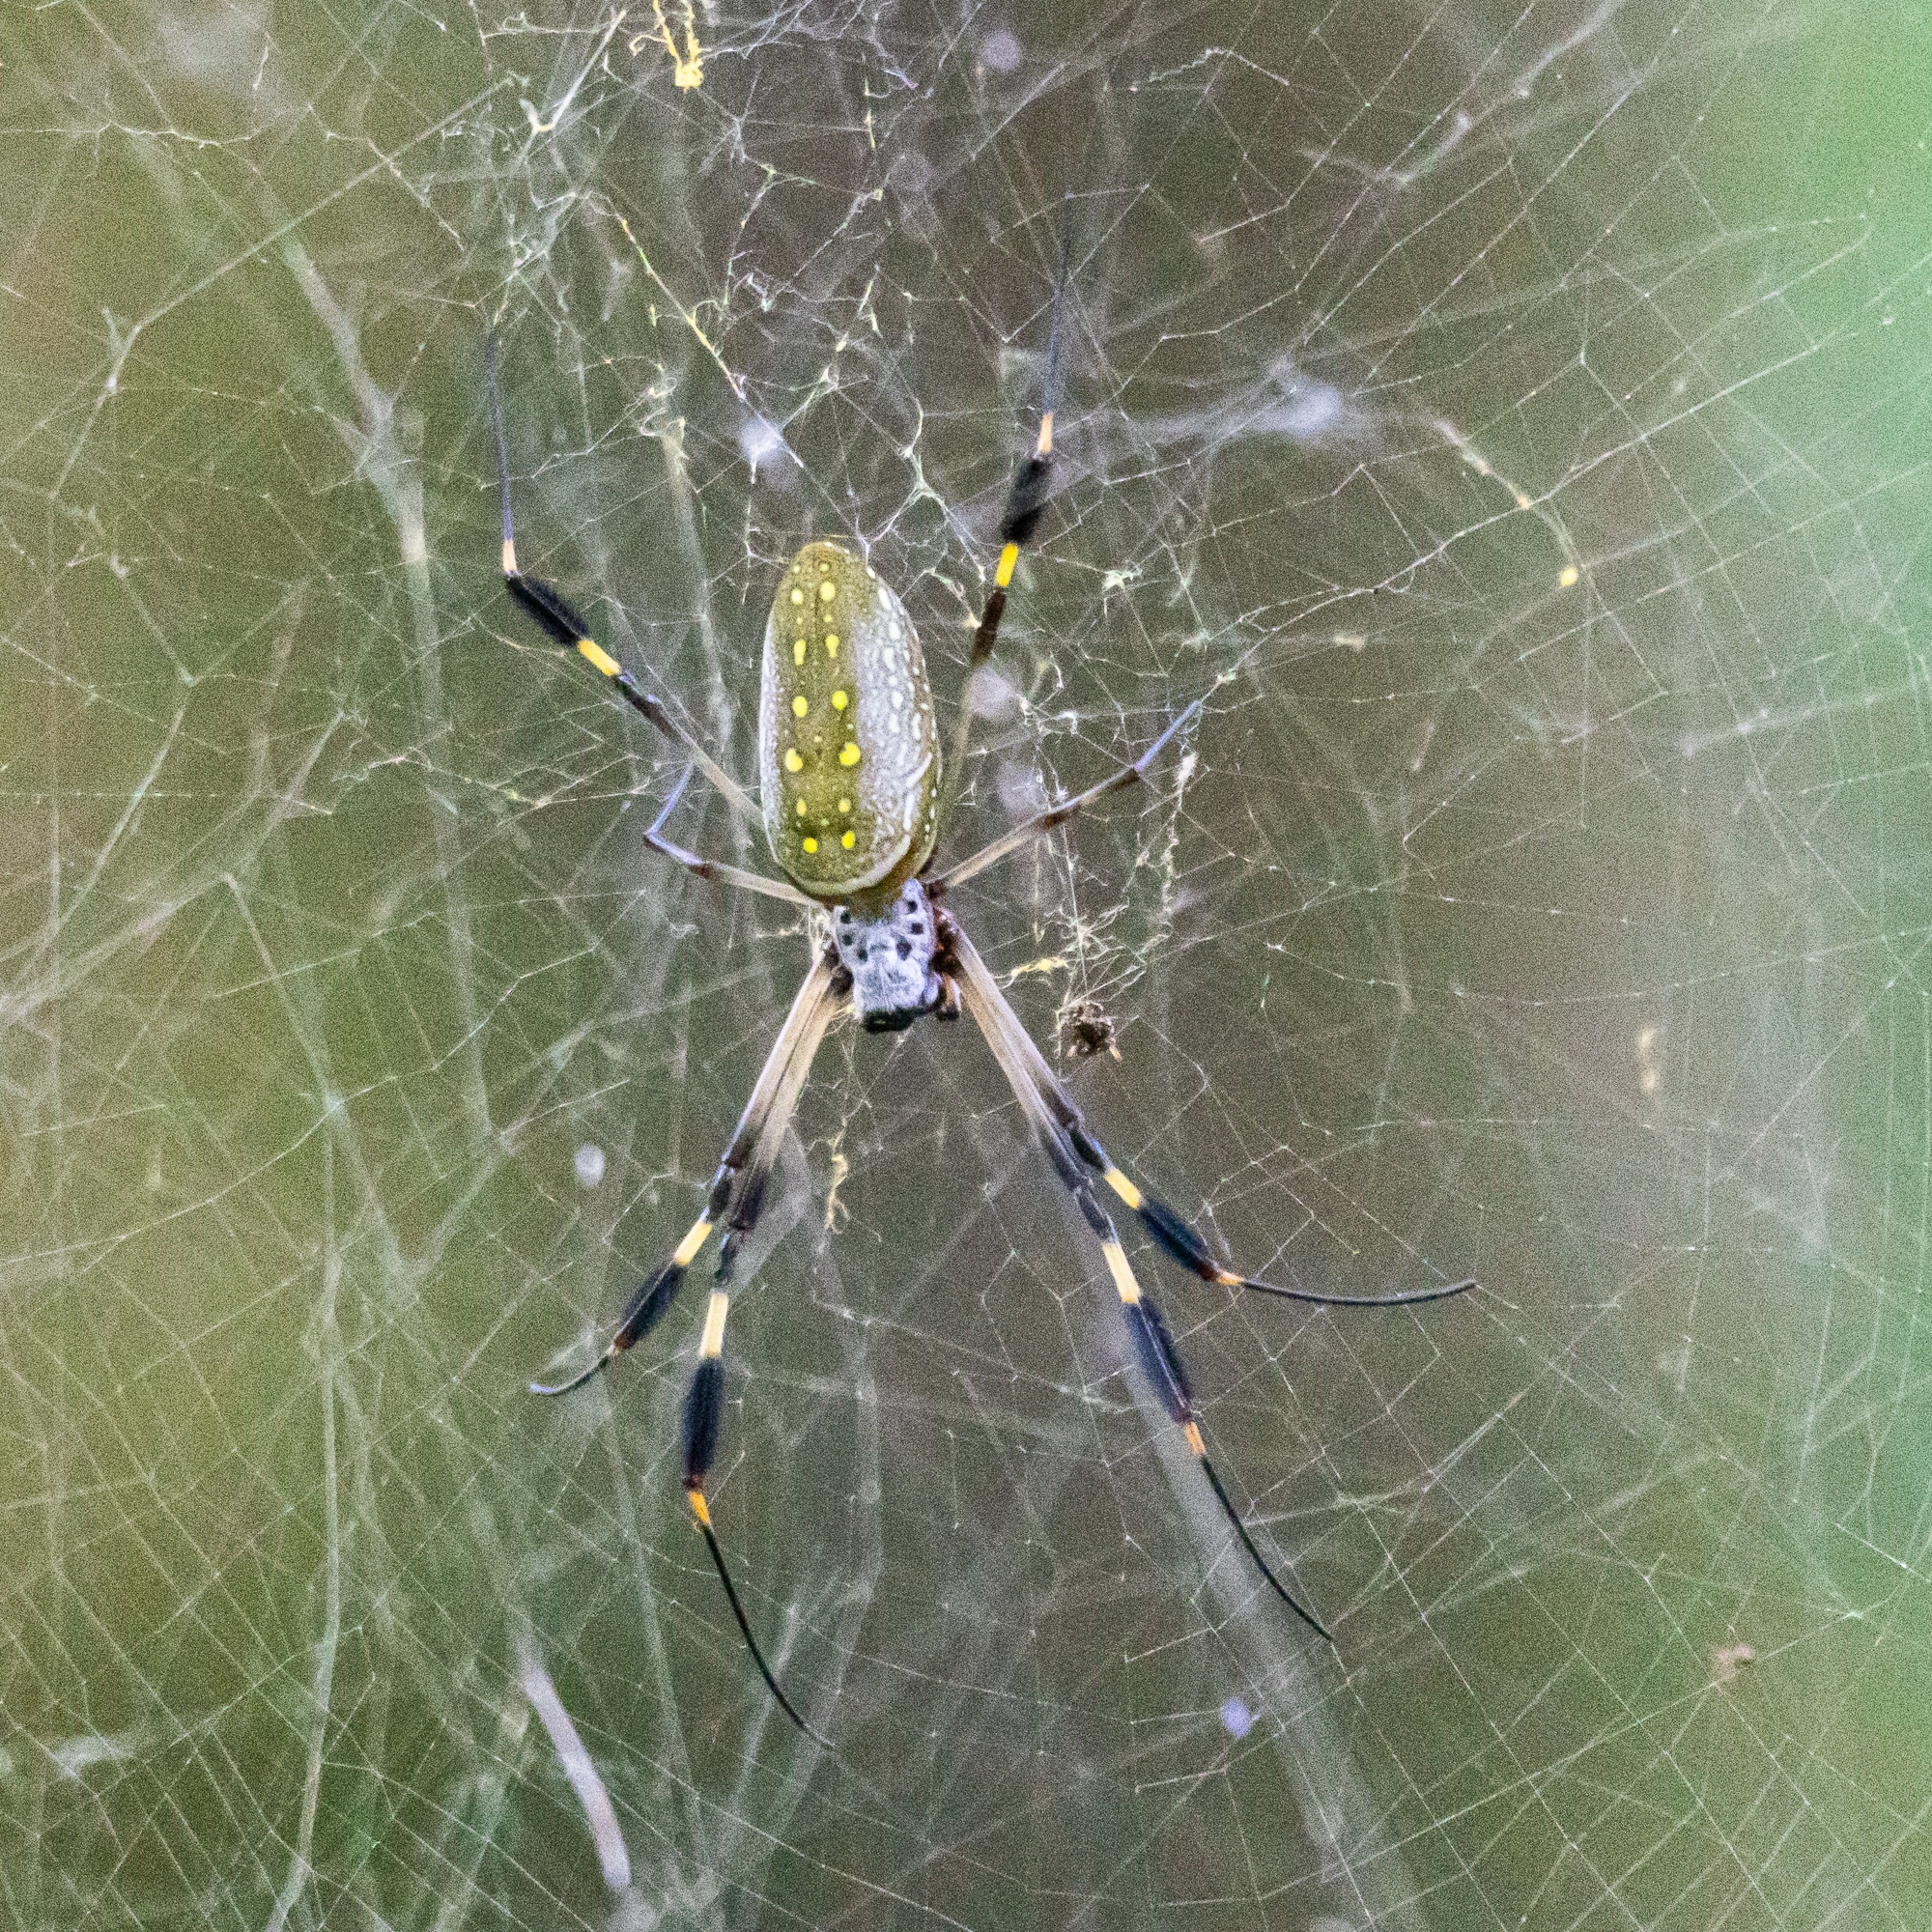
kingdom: Animalia
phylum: Arthropoda
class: Arachnida
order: Araneae
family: Araneidae
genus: Trichonephila
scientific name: Trichonephila clavipes
